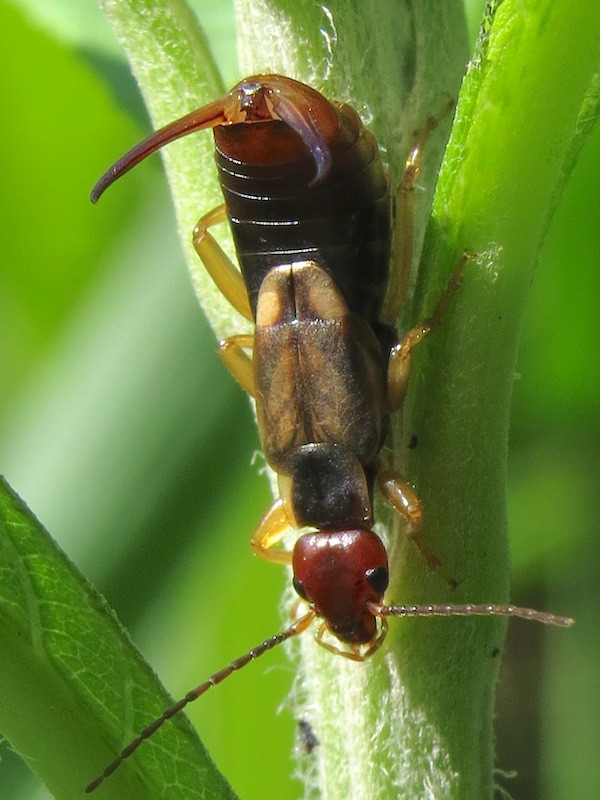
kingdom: Animalia
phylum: Arthropoda
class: Insecta
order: Dermaptera
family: Forficulidae
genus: Forficula
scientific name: Forficula
